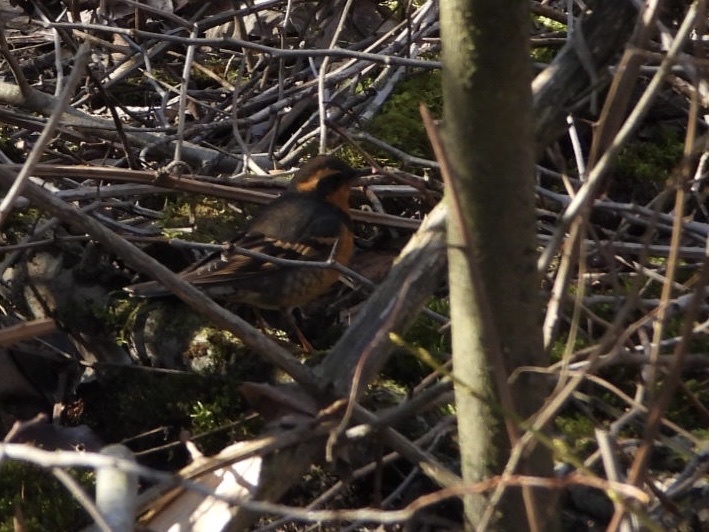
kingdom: Animalia
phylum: Chordata
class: Aves
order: Passeriformes
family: Turdidae
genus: Ixoreus
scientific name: Ixoreus naevius
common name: Varied thrush
